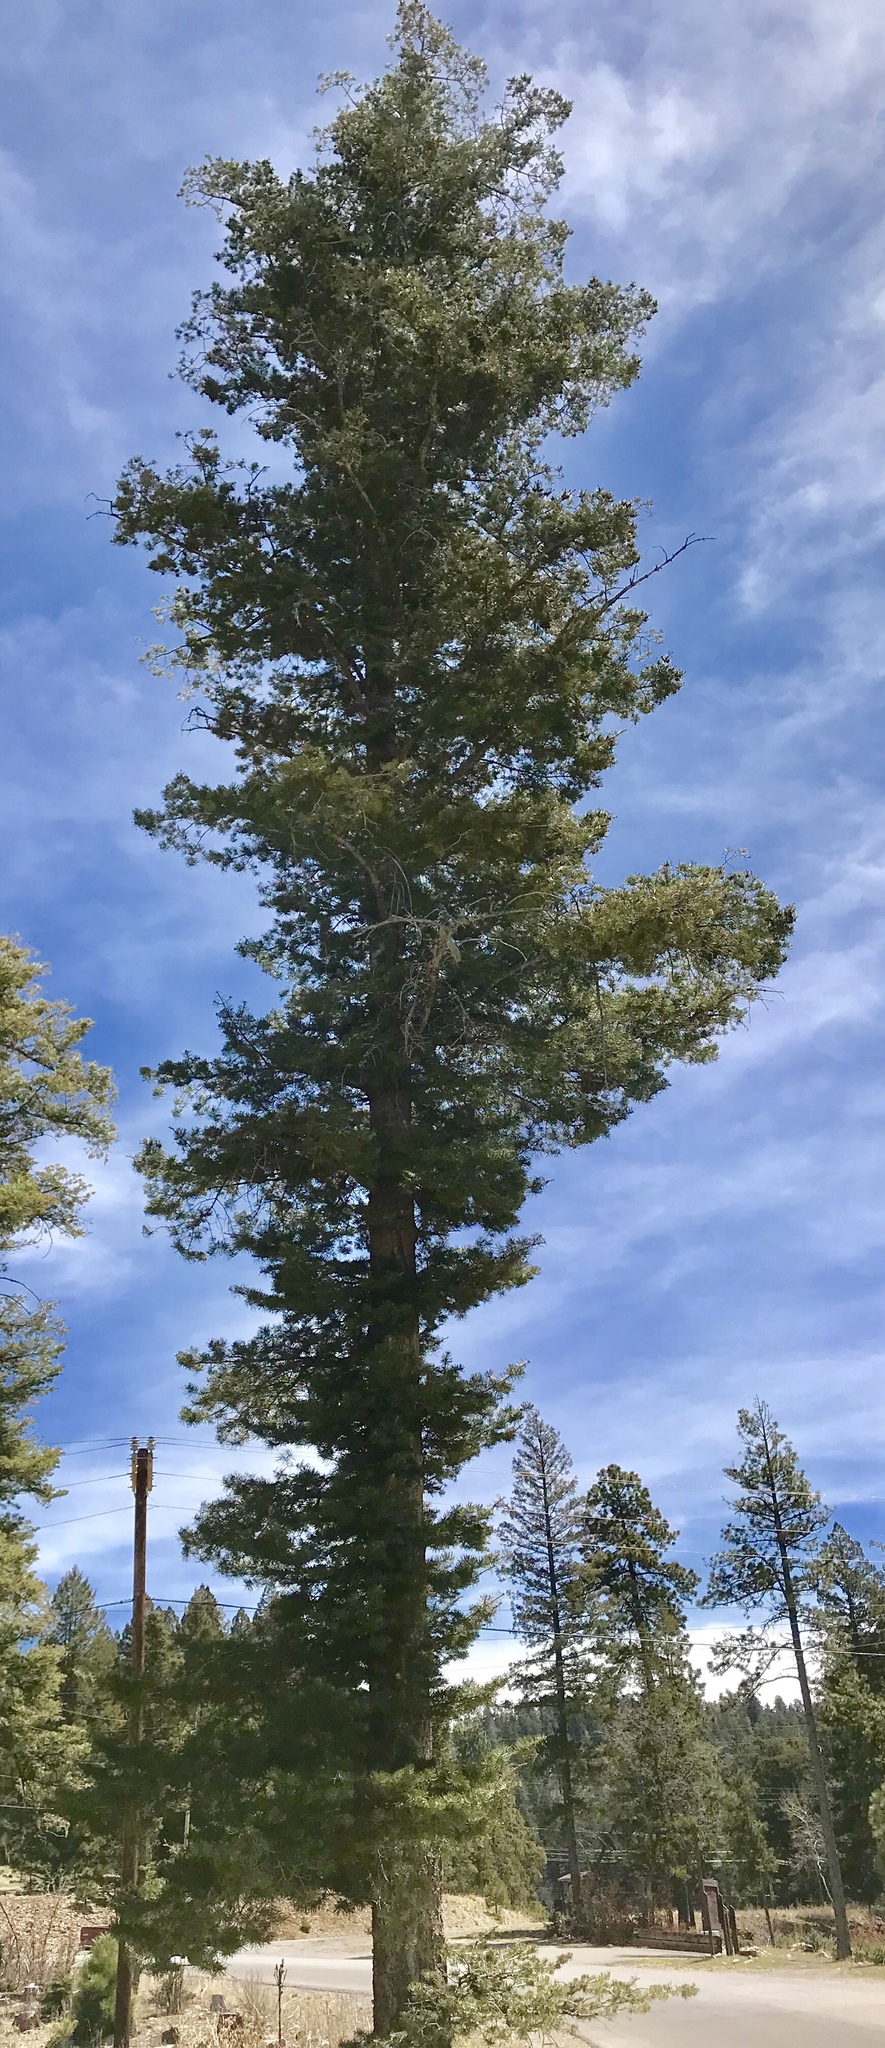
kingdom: Plantae
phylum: Tracheophyta
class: Pinopsida
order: Pinales
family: Pinaceae
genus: Abies
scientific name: Abies concolor
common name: Colorado fir
